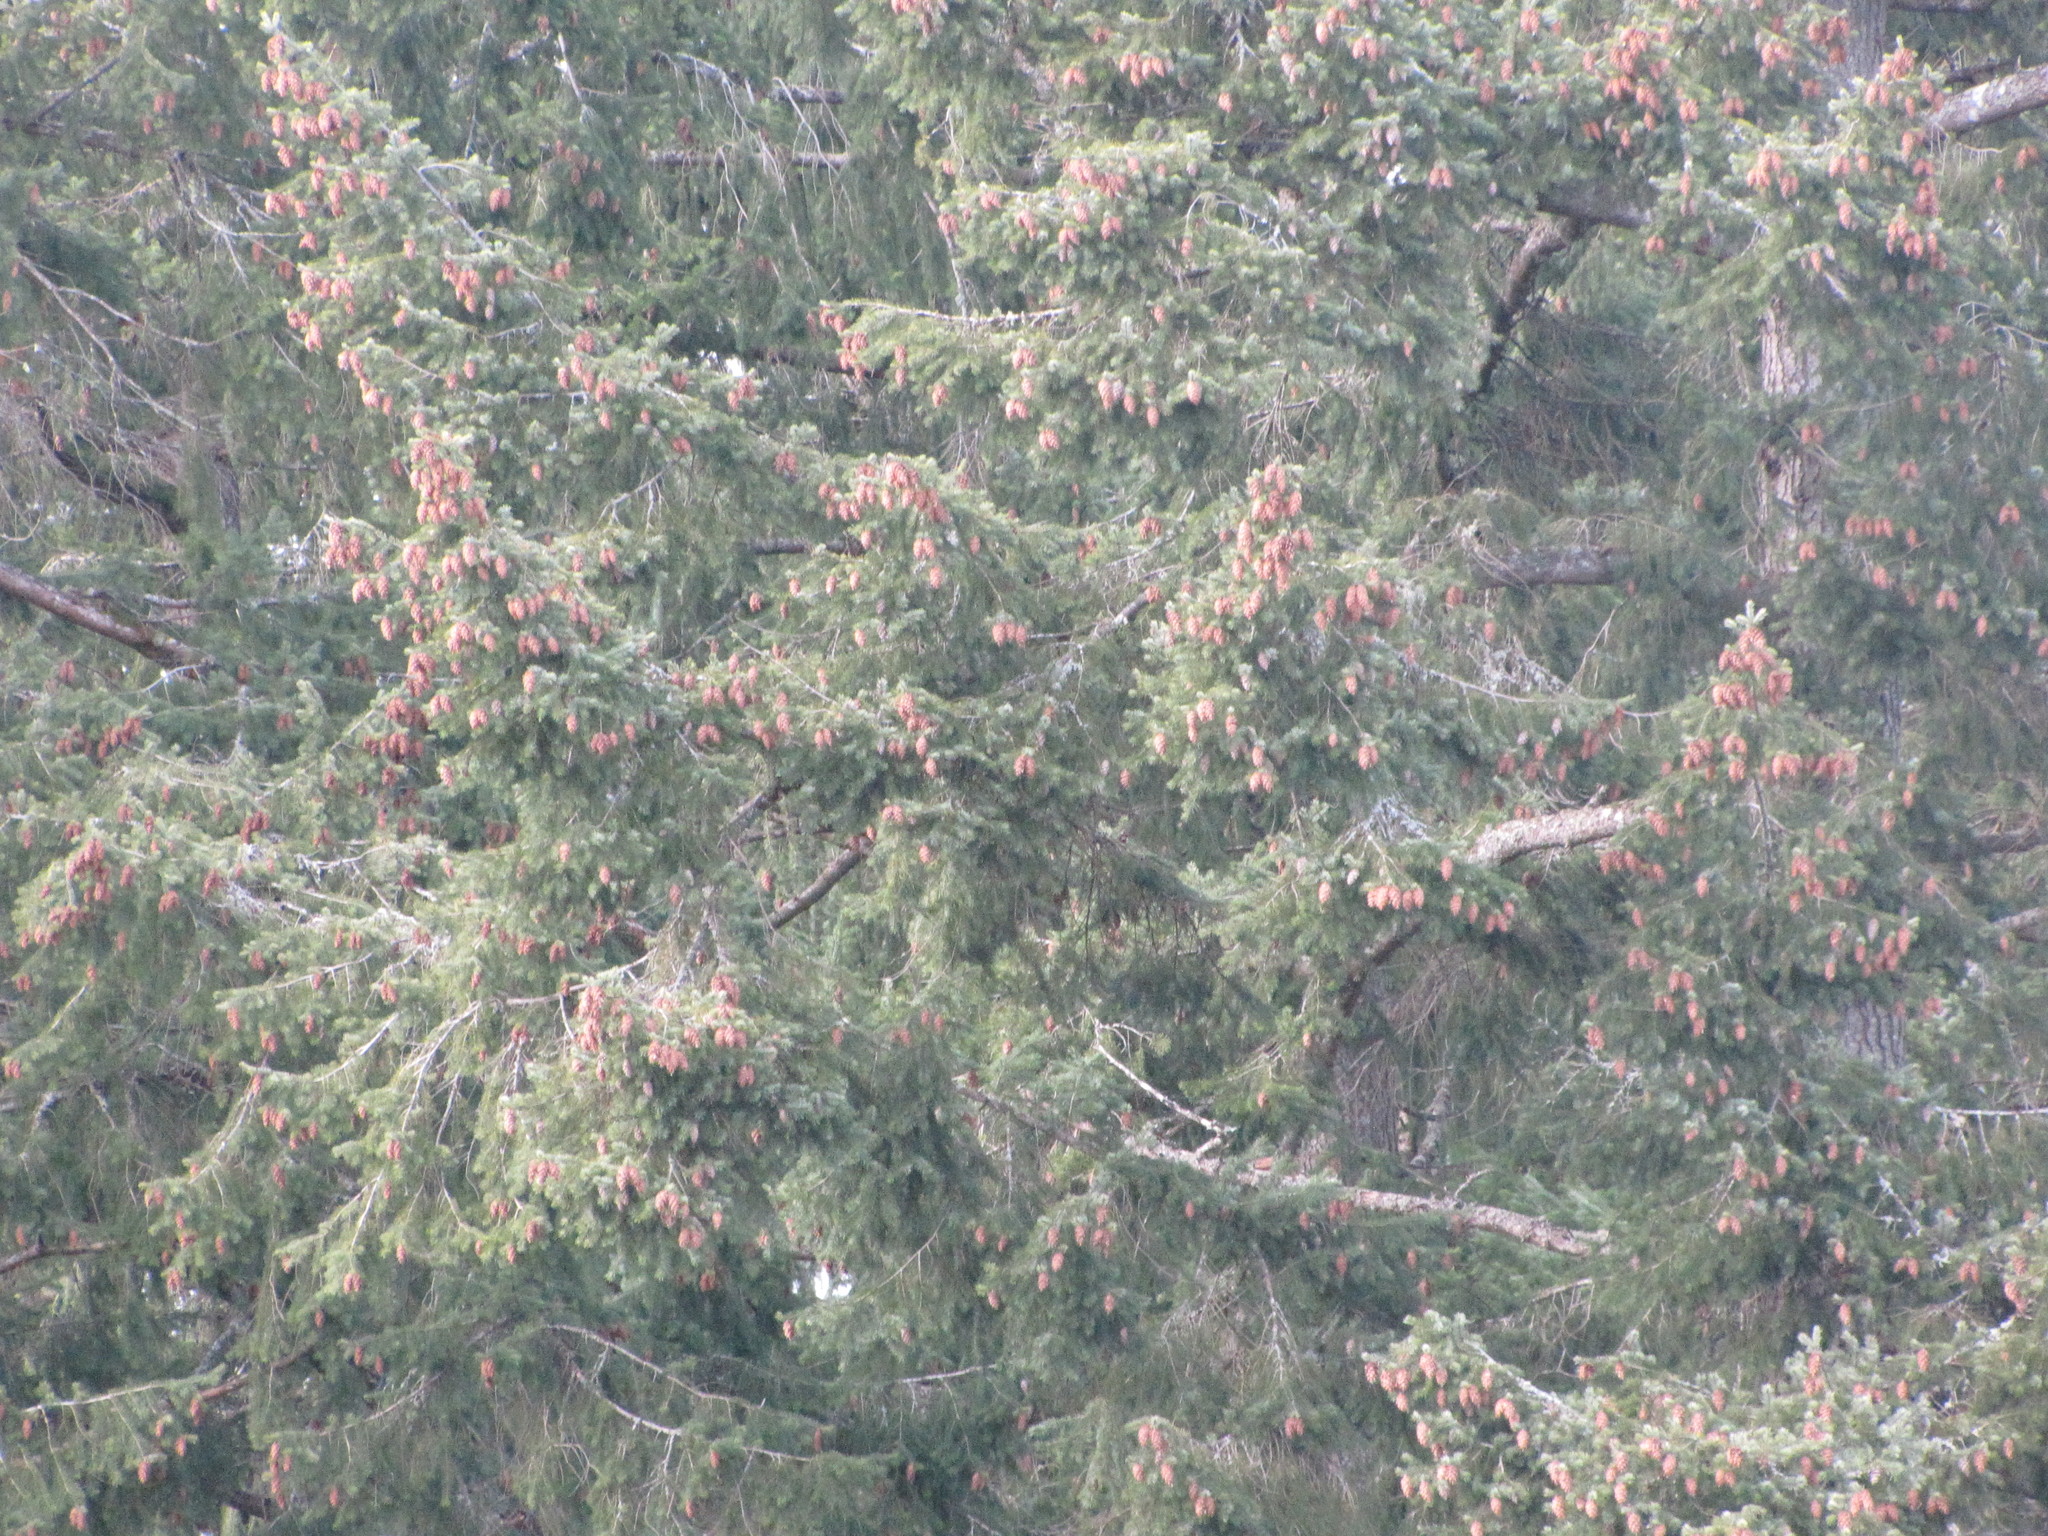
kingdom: Plantae
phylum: Tracheophyta
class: Pinopsida
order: Pinales
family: Pinaceae
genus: Pseudotsuga
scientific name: Pseudotsuga menziesii
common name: Douglas fir
